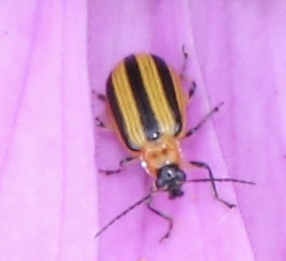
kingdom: Animalia
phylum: Arthropoda
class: Insecta
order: Coleoptera
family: Chrysomelidae
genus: Acalymma
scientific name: Acalymma vittatum
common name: Striped cucumber beetle
